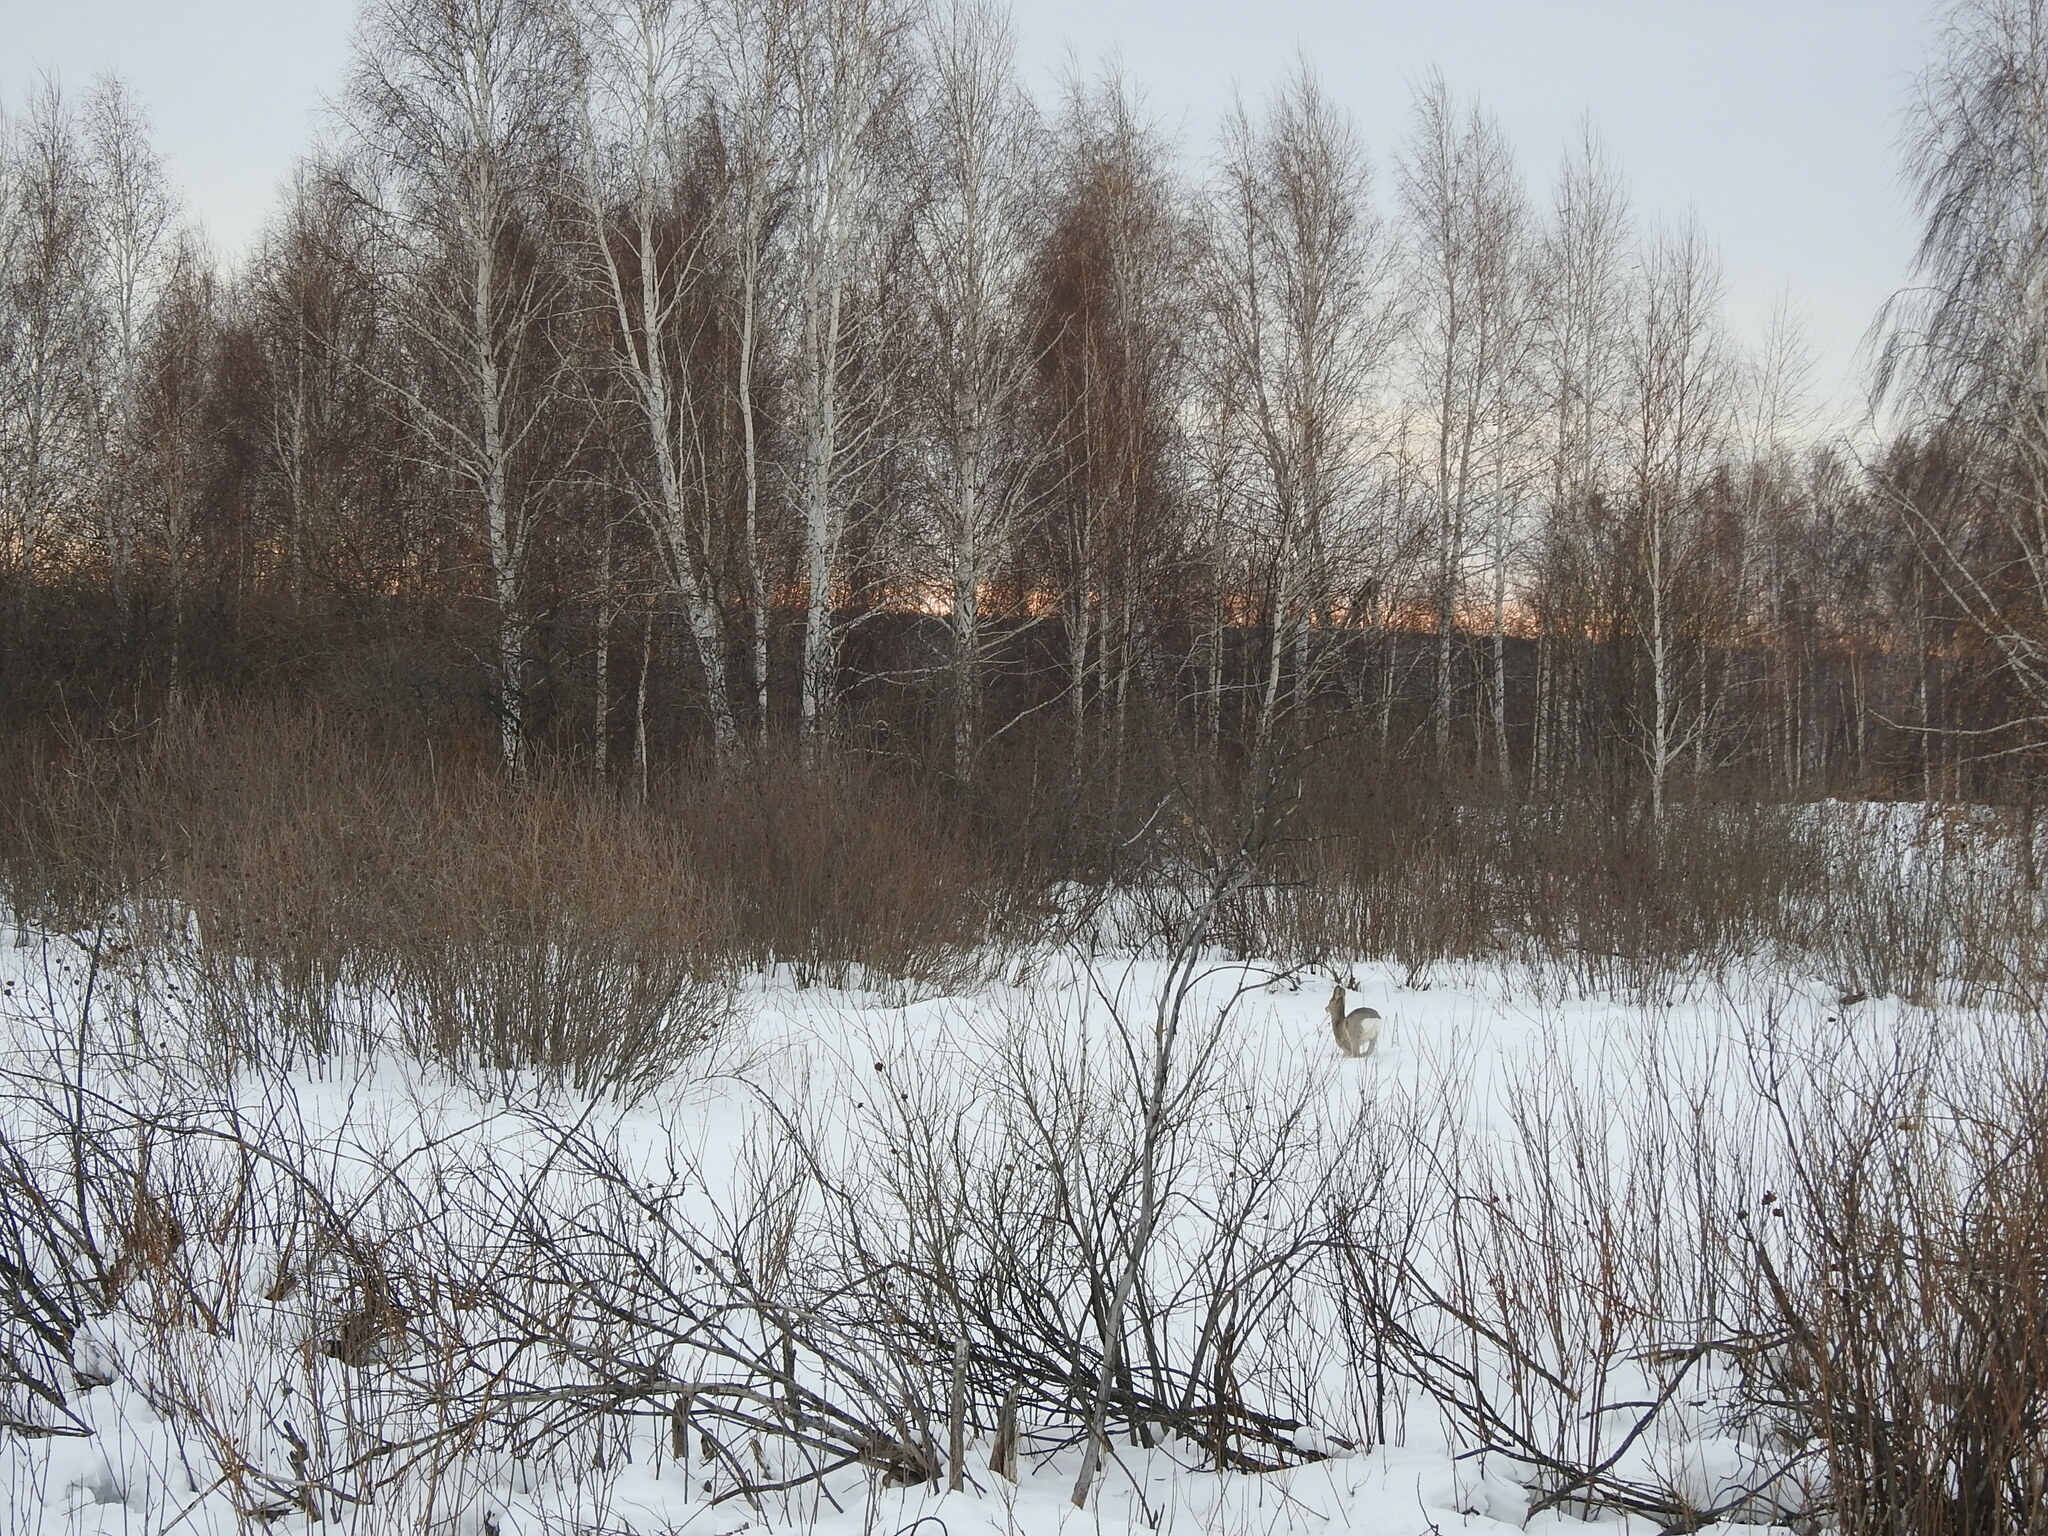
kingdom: Animalia
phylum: Chordata
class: Mammalia
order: Artiodactyla
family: Cervidae
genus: Capreolus
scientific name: Capreolus pygargus
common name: Siberian roe
